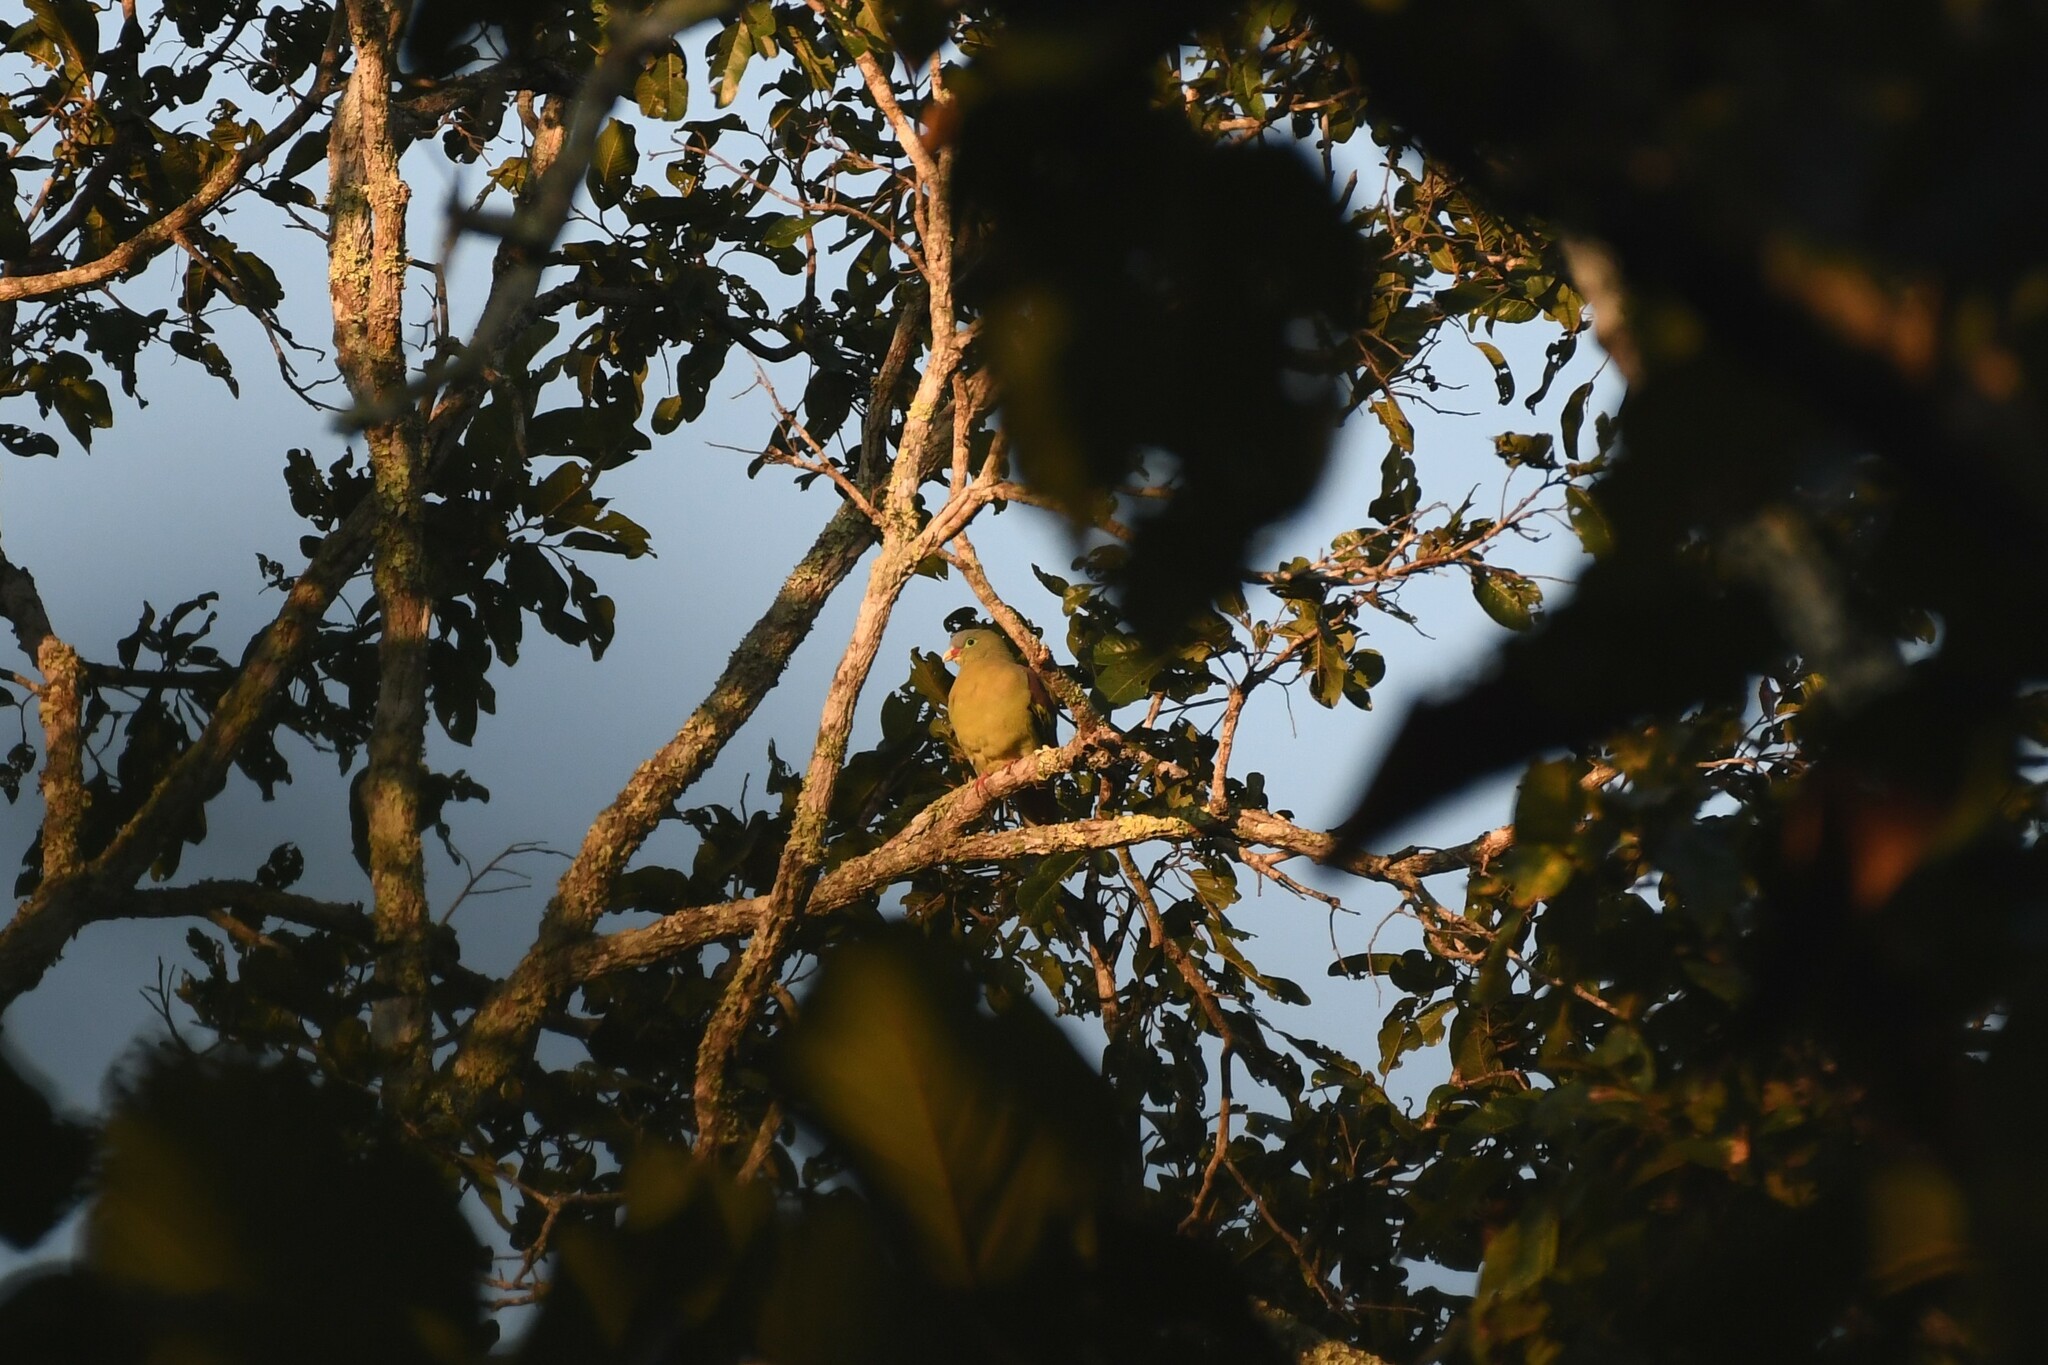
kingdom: Animalia
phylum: Chordata
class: Aves
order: Columbiformes
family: Columbidae
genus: Treron
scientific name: Treron curvirostra
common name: Thick-billed green pigeon
